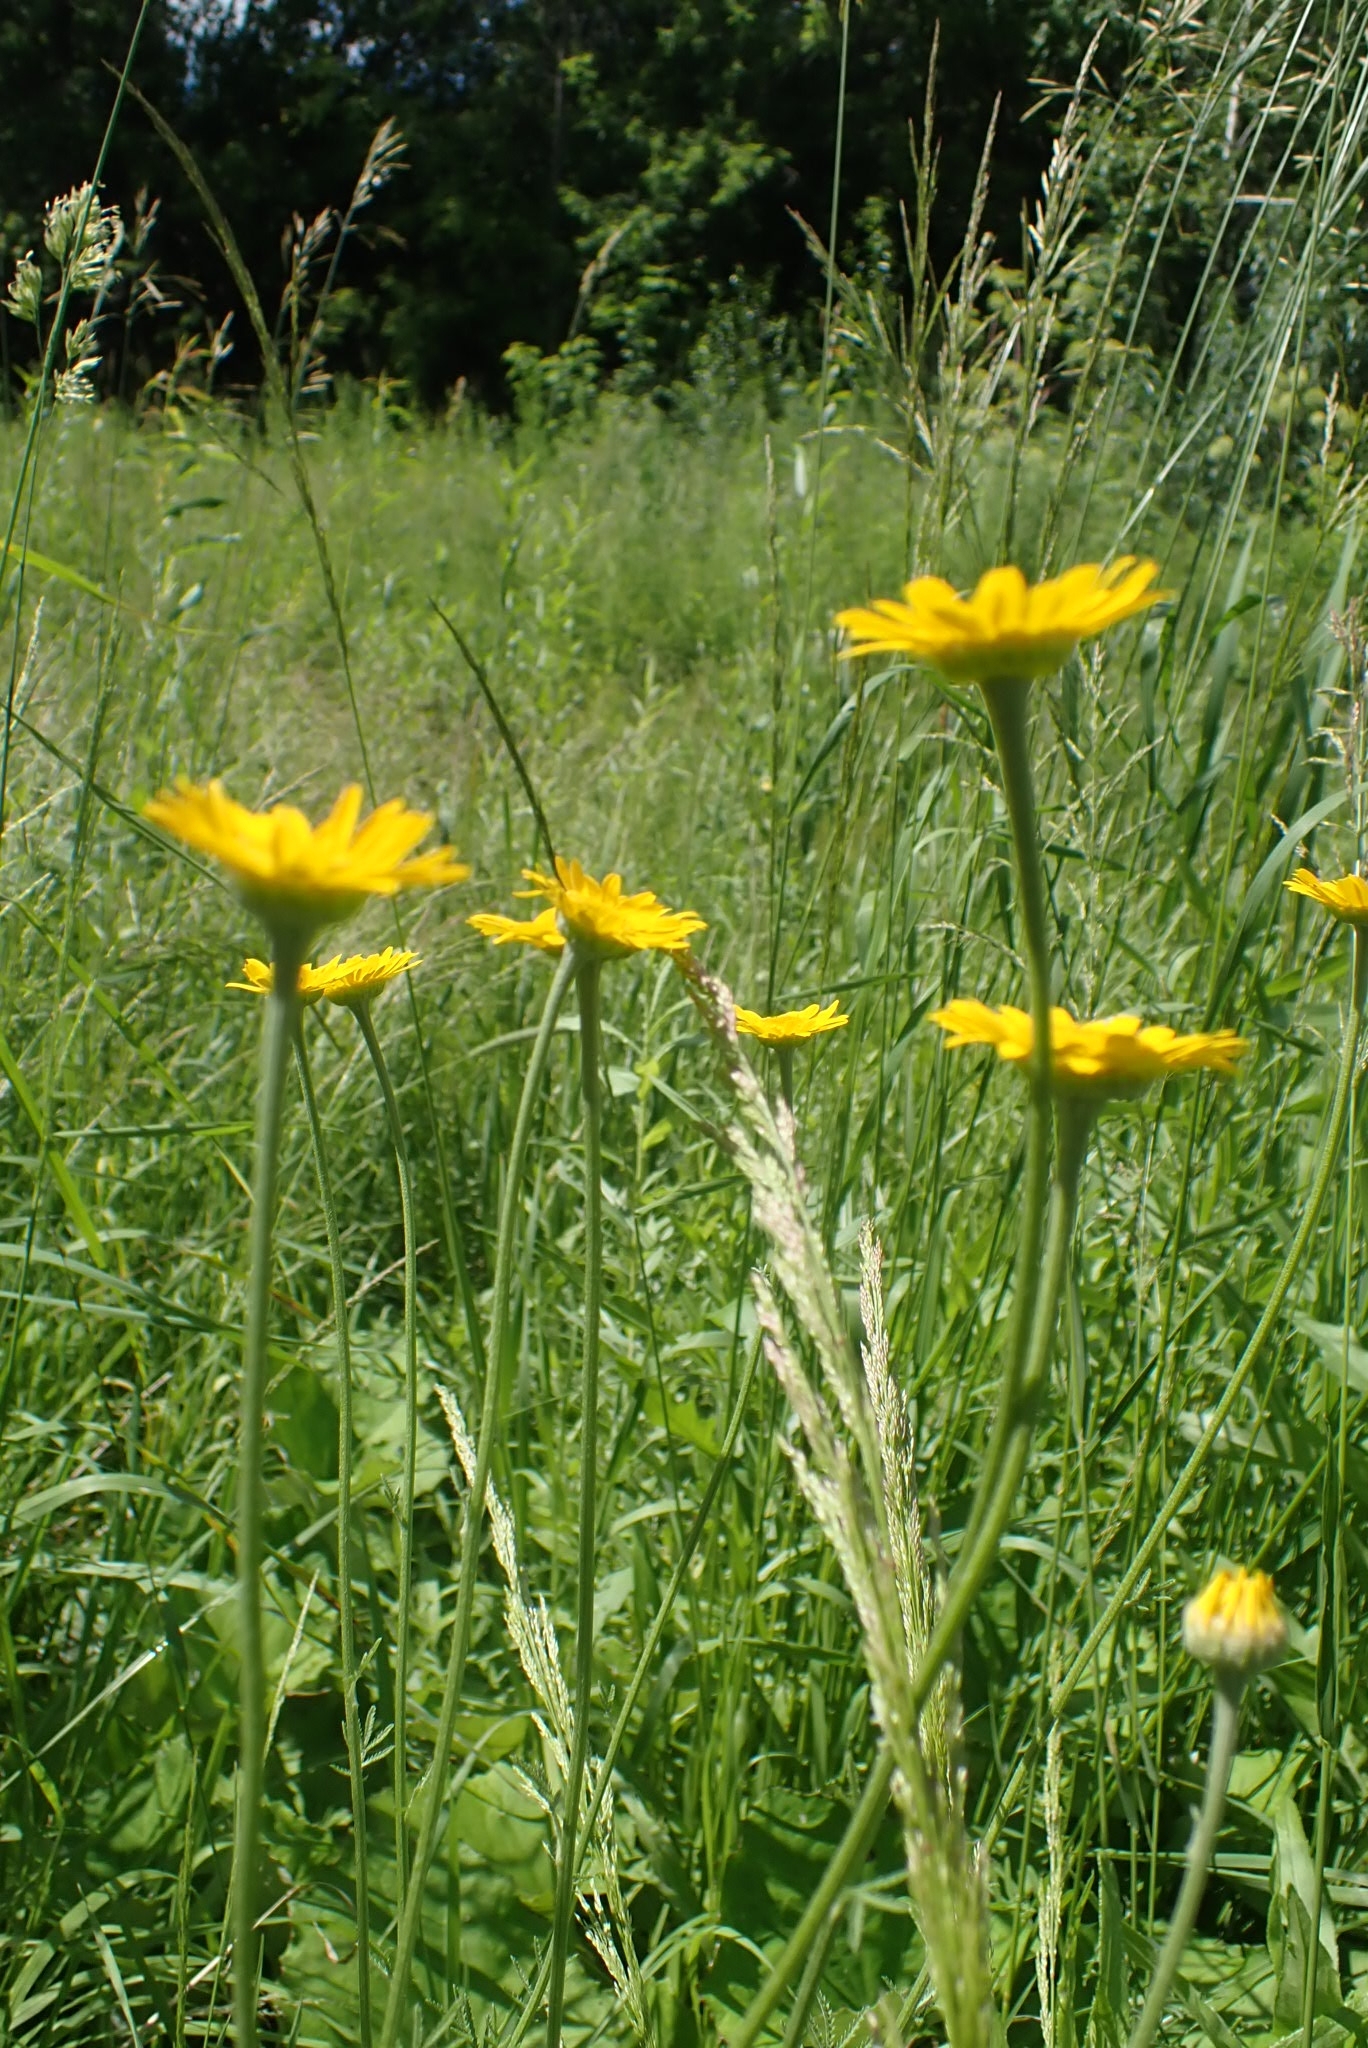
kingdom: Plantae
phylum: Tracheophyta
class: Magnoliopsida
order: Asterales
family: Asteraceae
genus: Cota
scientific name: Cota tinctoria
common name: Golden chamomile
